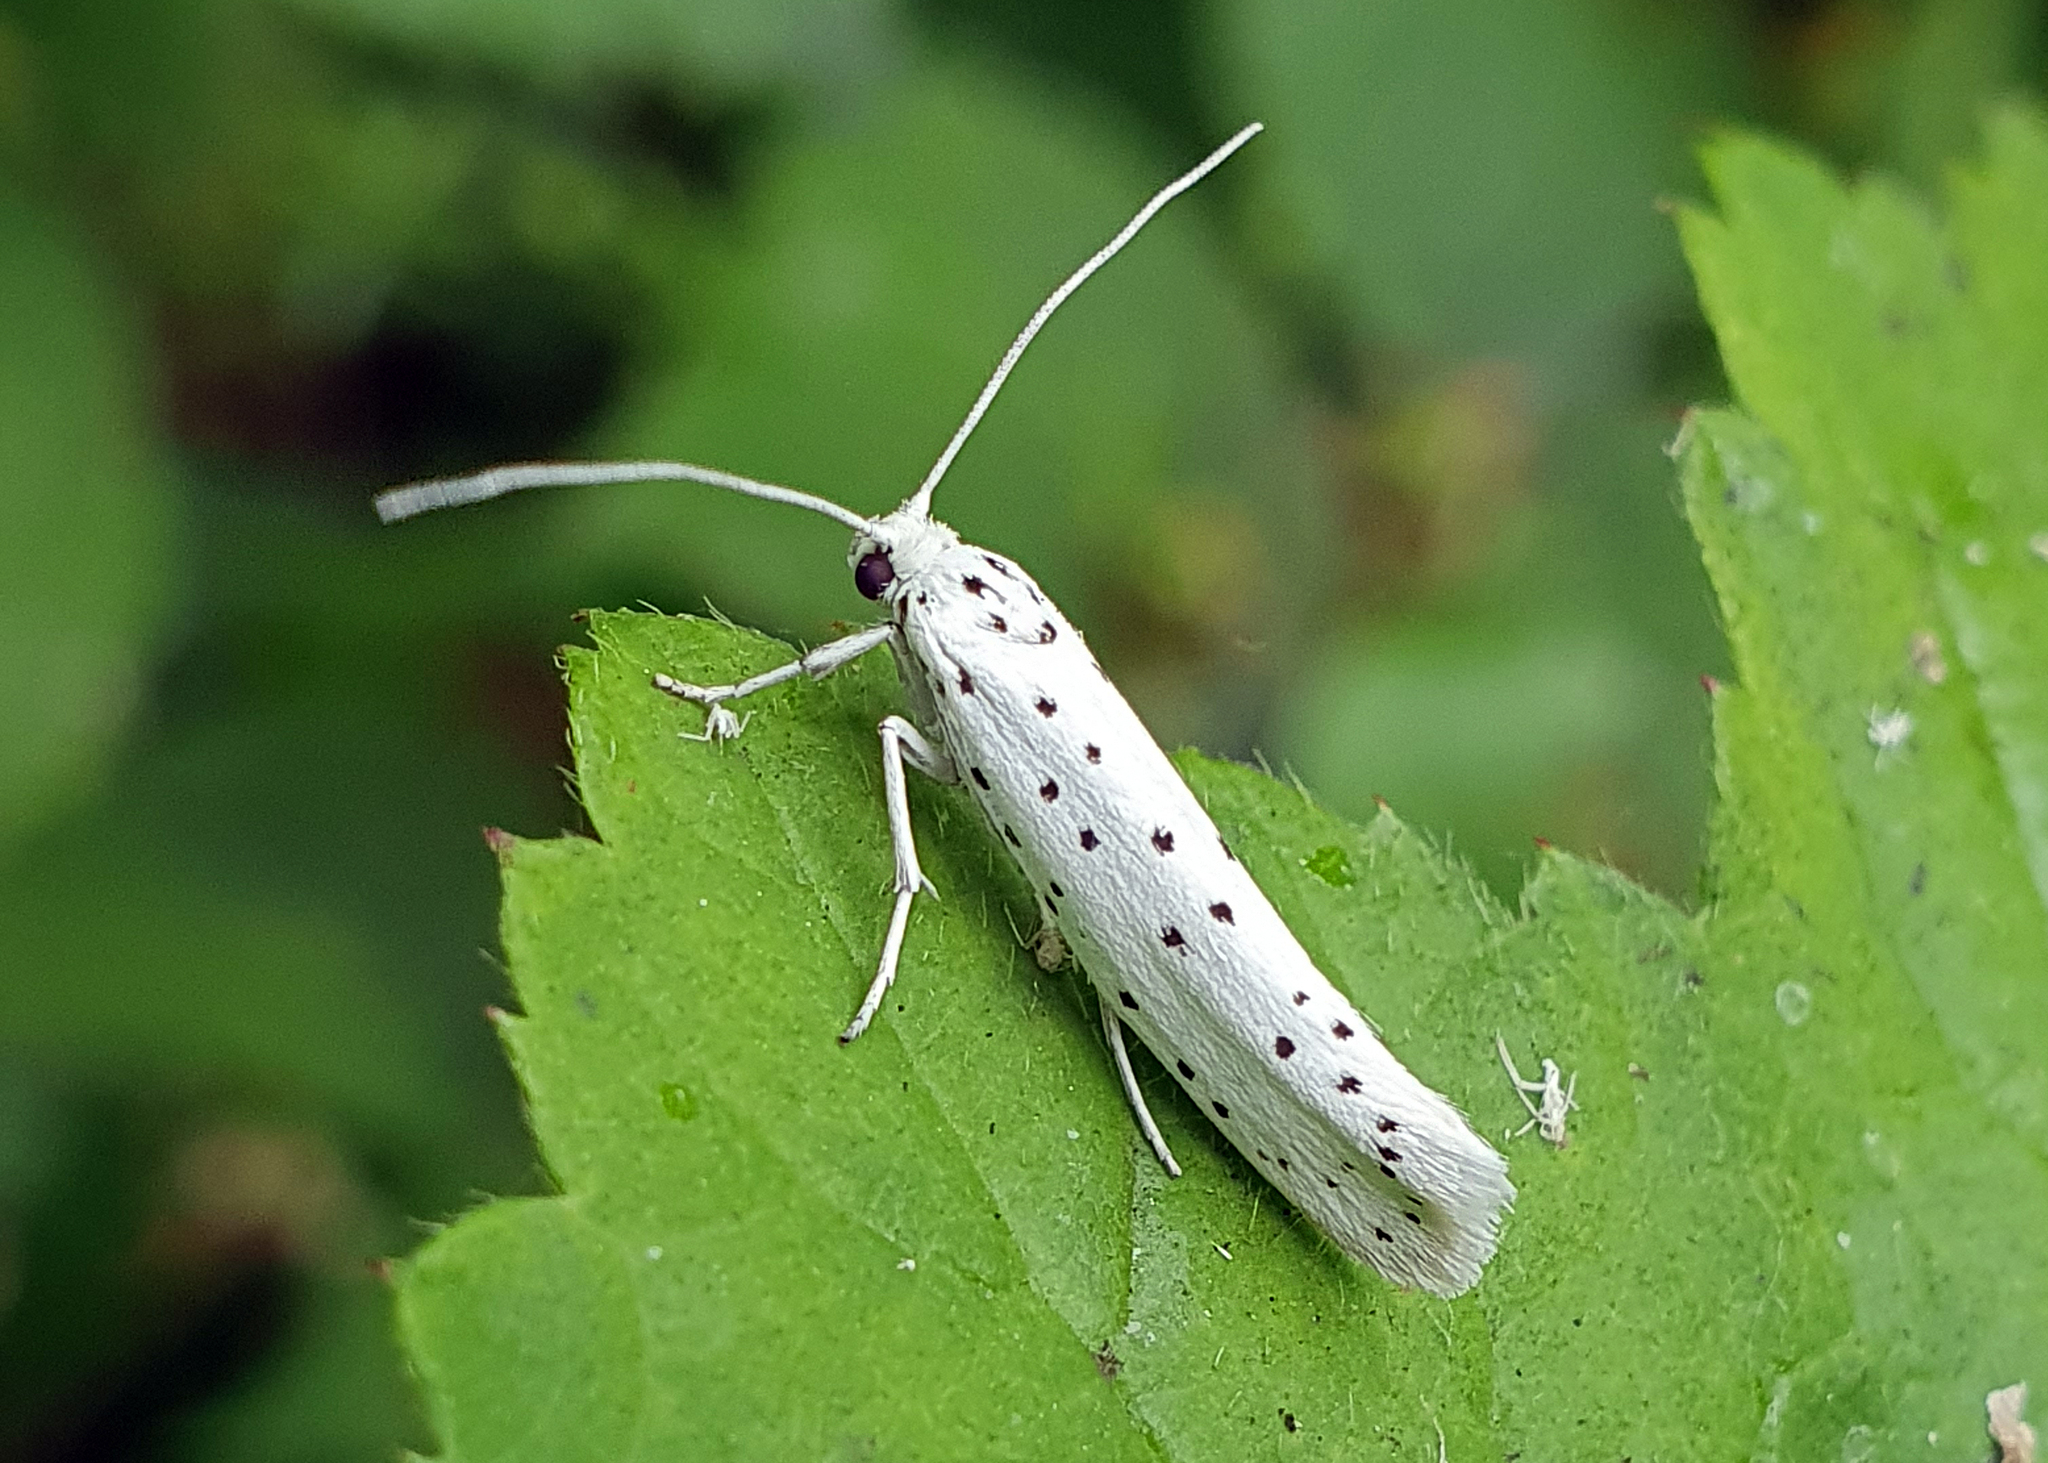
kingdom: Animalia
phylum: Arthropoda
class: Insecta
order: Lepidoptera
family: Yponomeutidae
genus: Yponomeuta
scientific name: Yponomeuta
